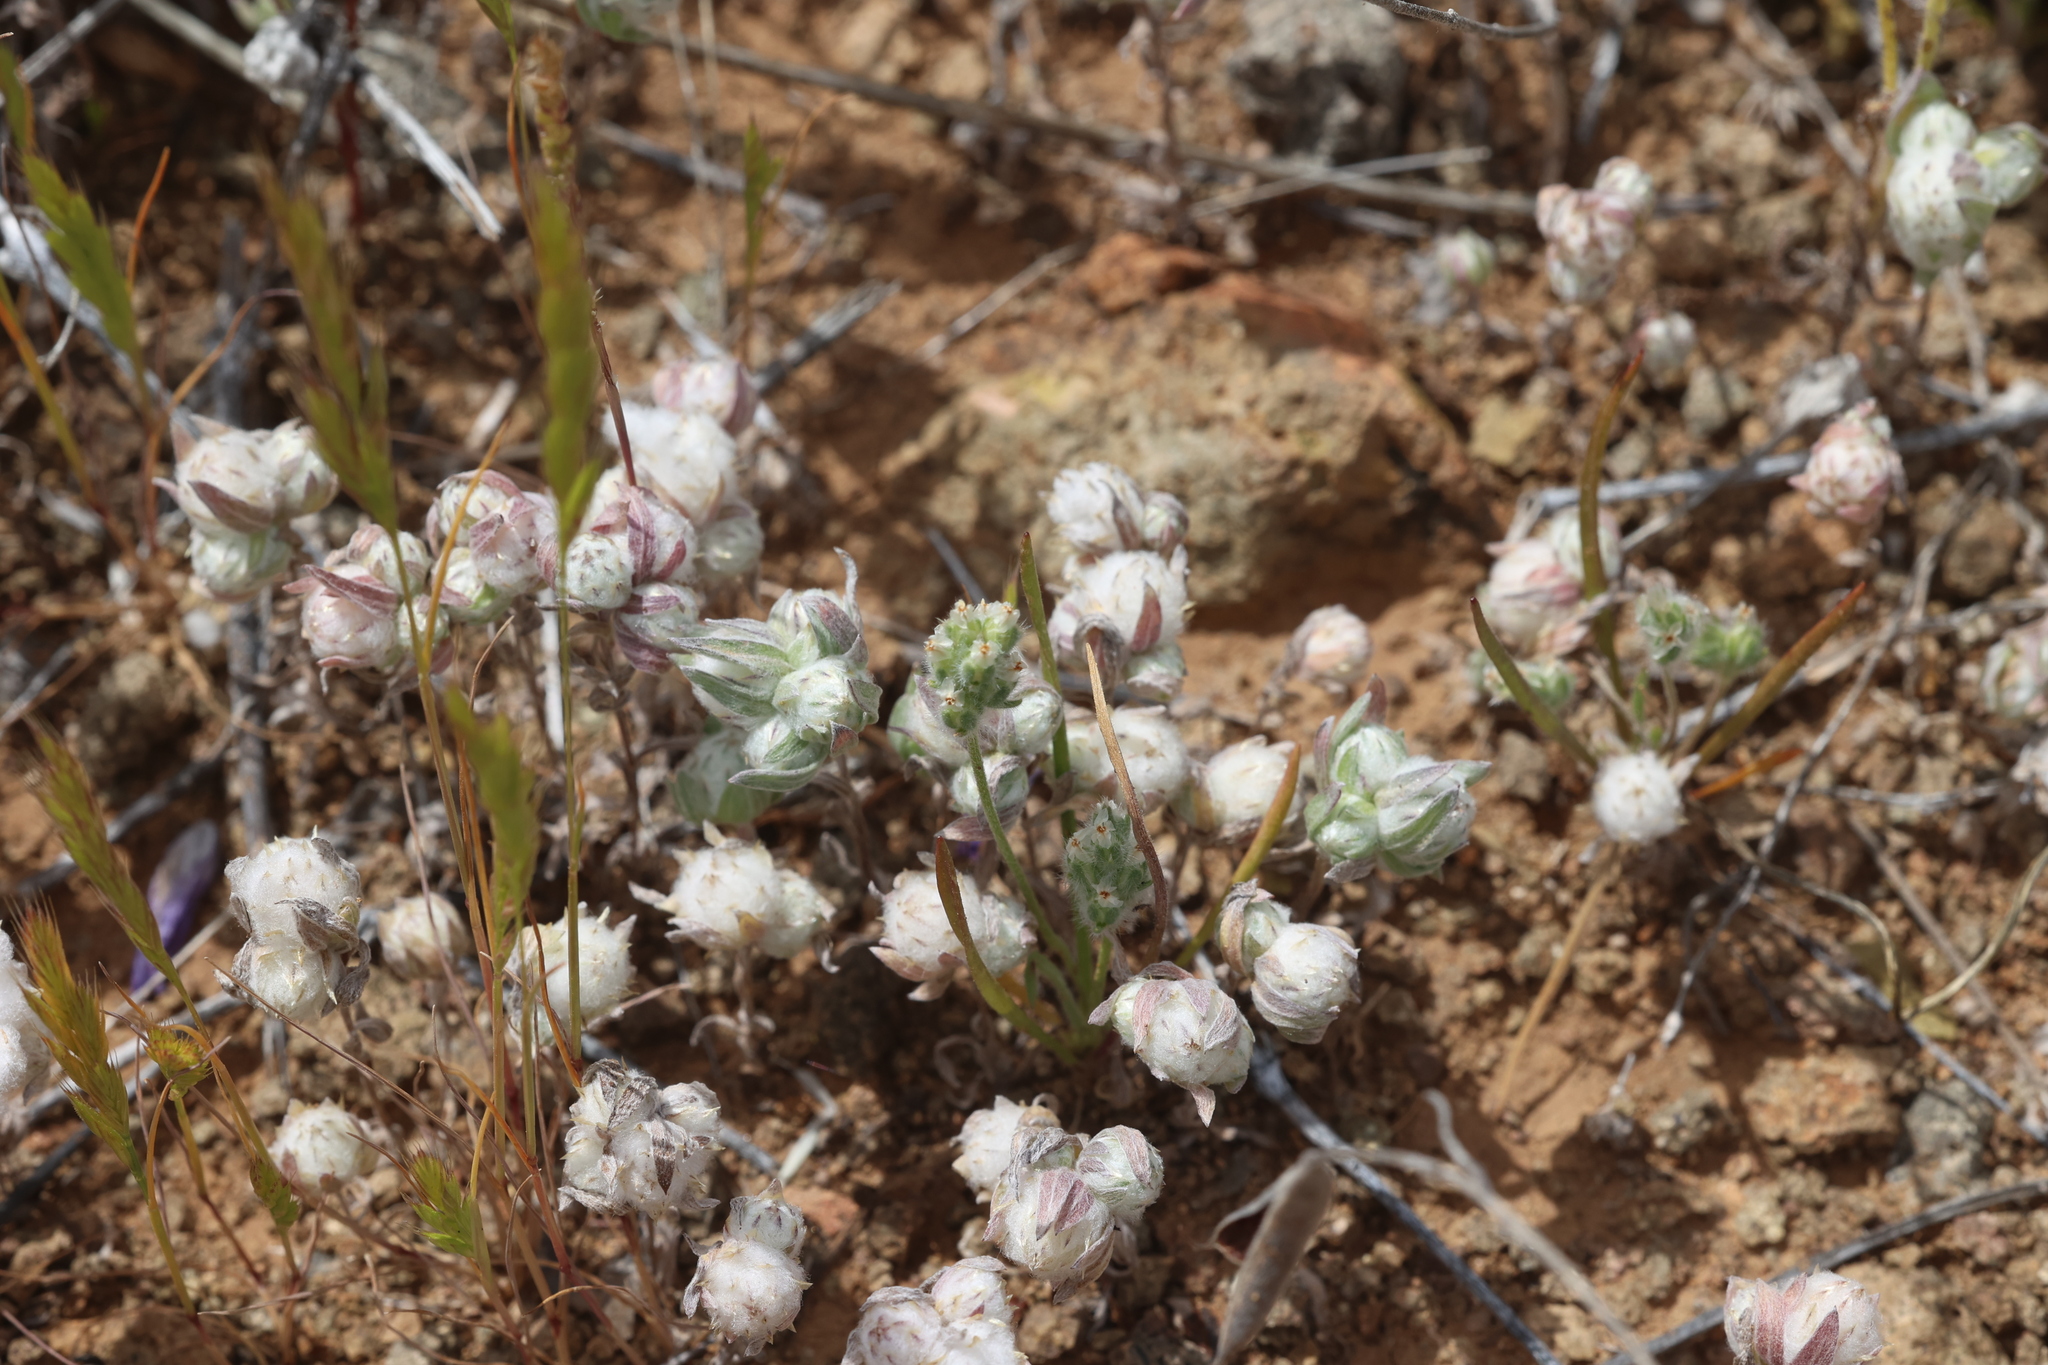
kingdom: Plantae
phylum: Tracheophyta
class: Magnoliopsida
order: Asterales
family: Asteraceae
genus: Stylocline
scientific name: Stylocline micropoides
